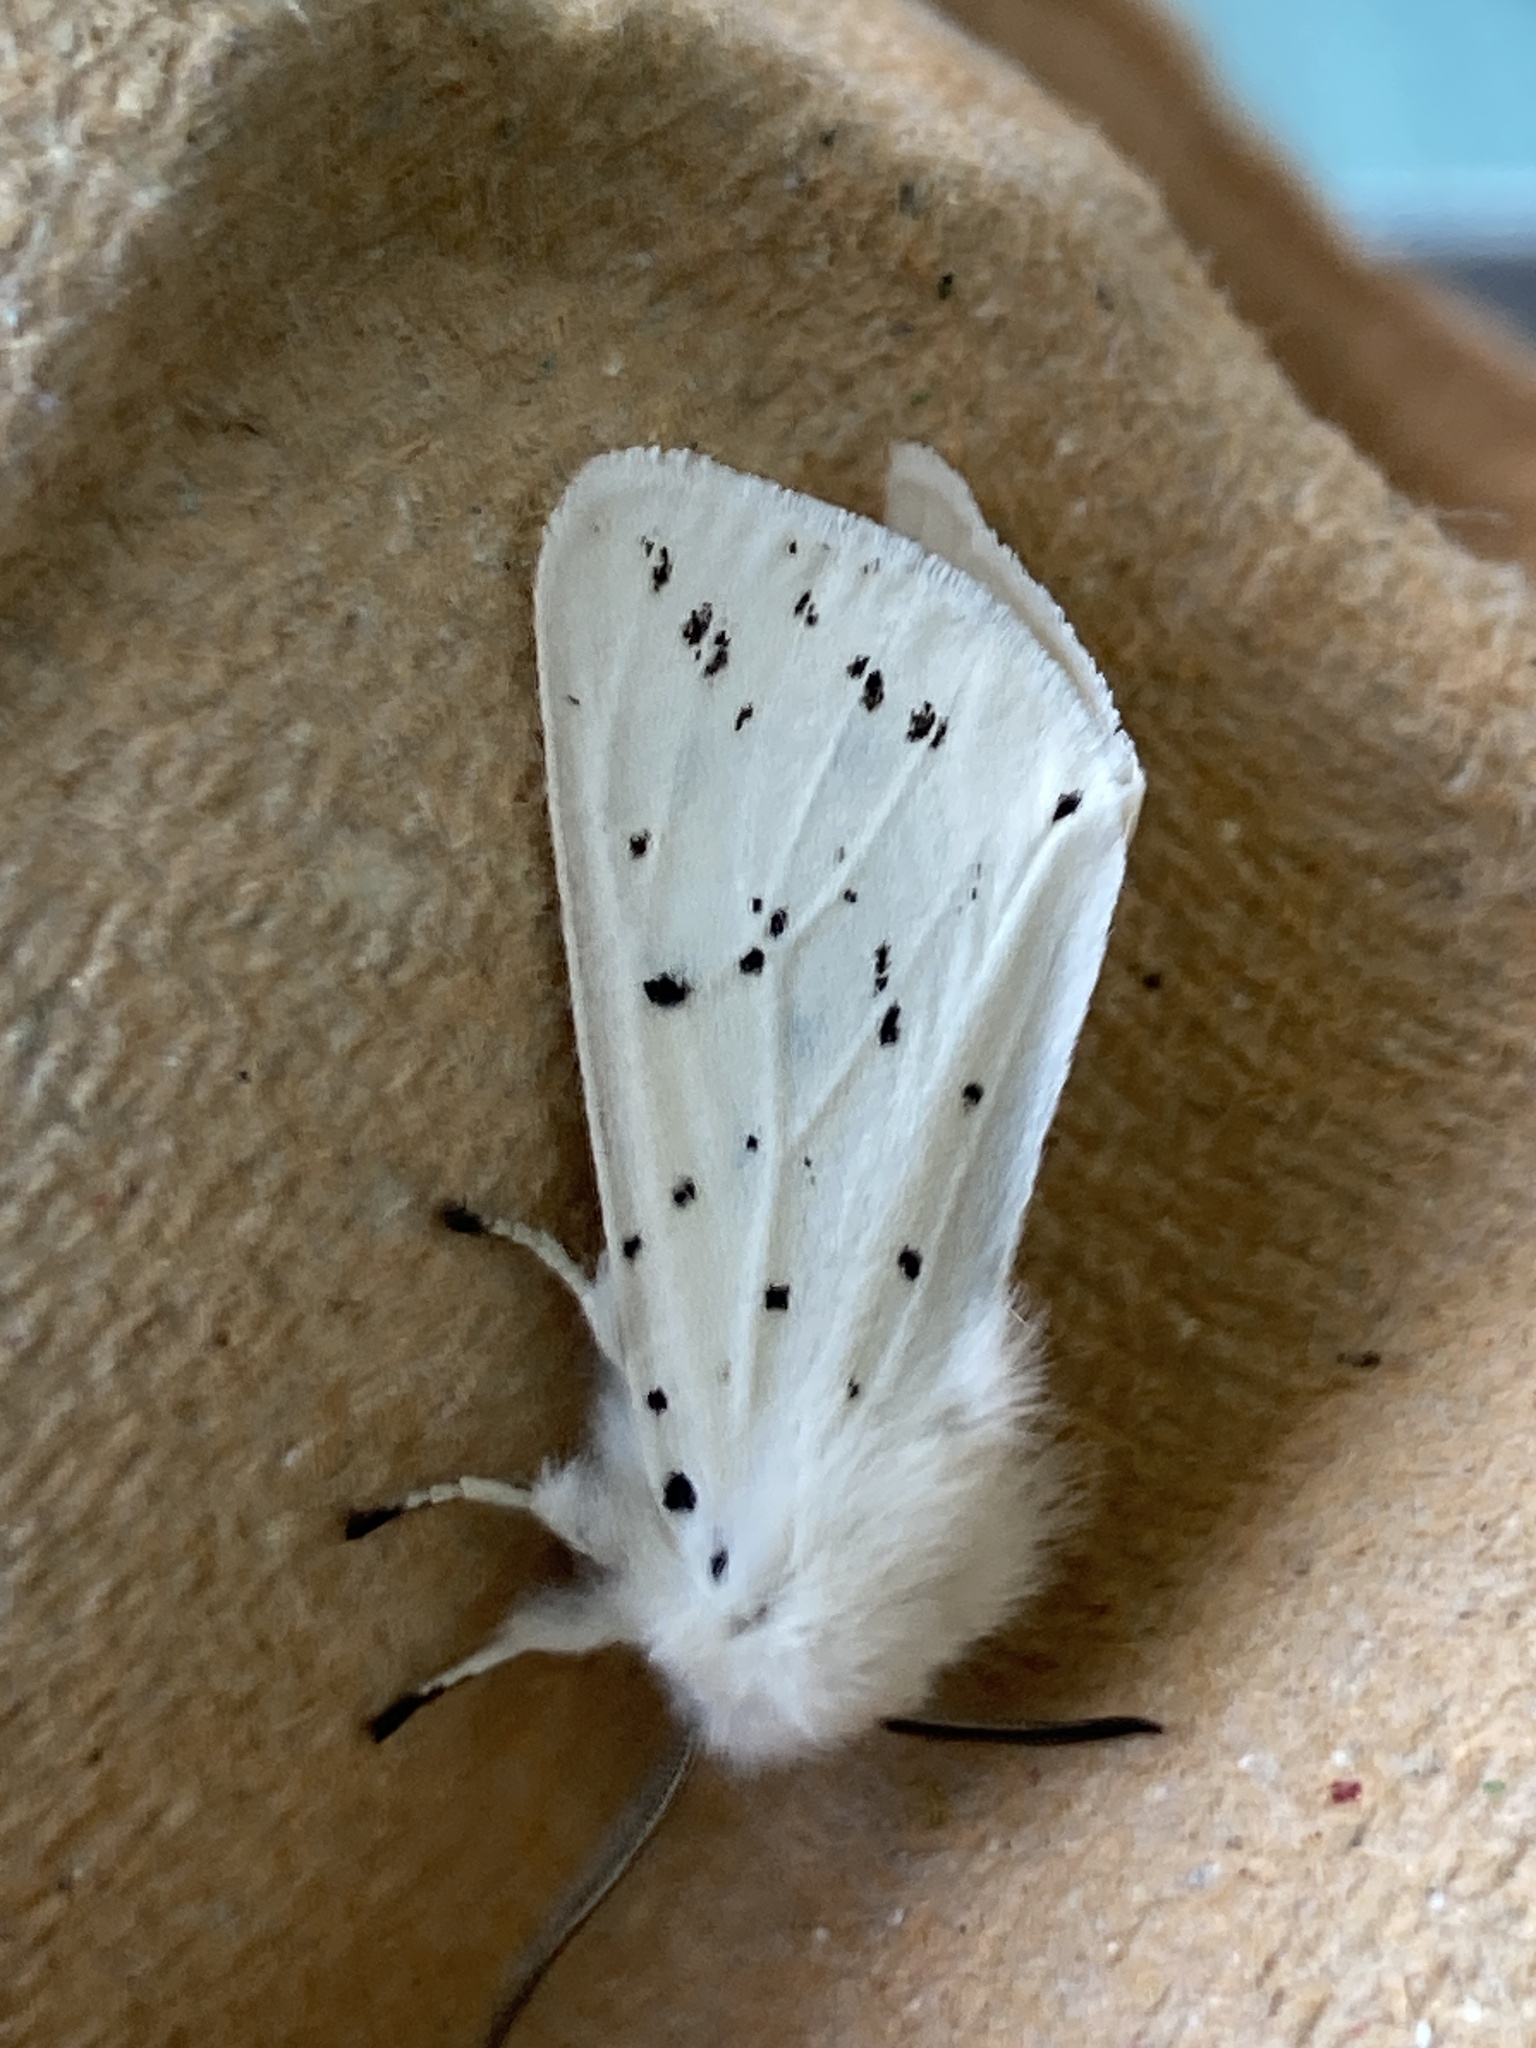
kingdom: Animalia
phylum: Arthropoda
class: Insecta
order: Lepidoptera
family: Erebidae
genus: Spilosoma
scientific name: Spilosoma lubricipeda
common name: White ermine
